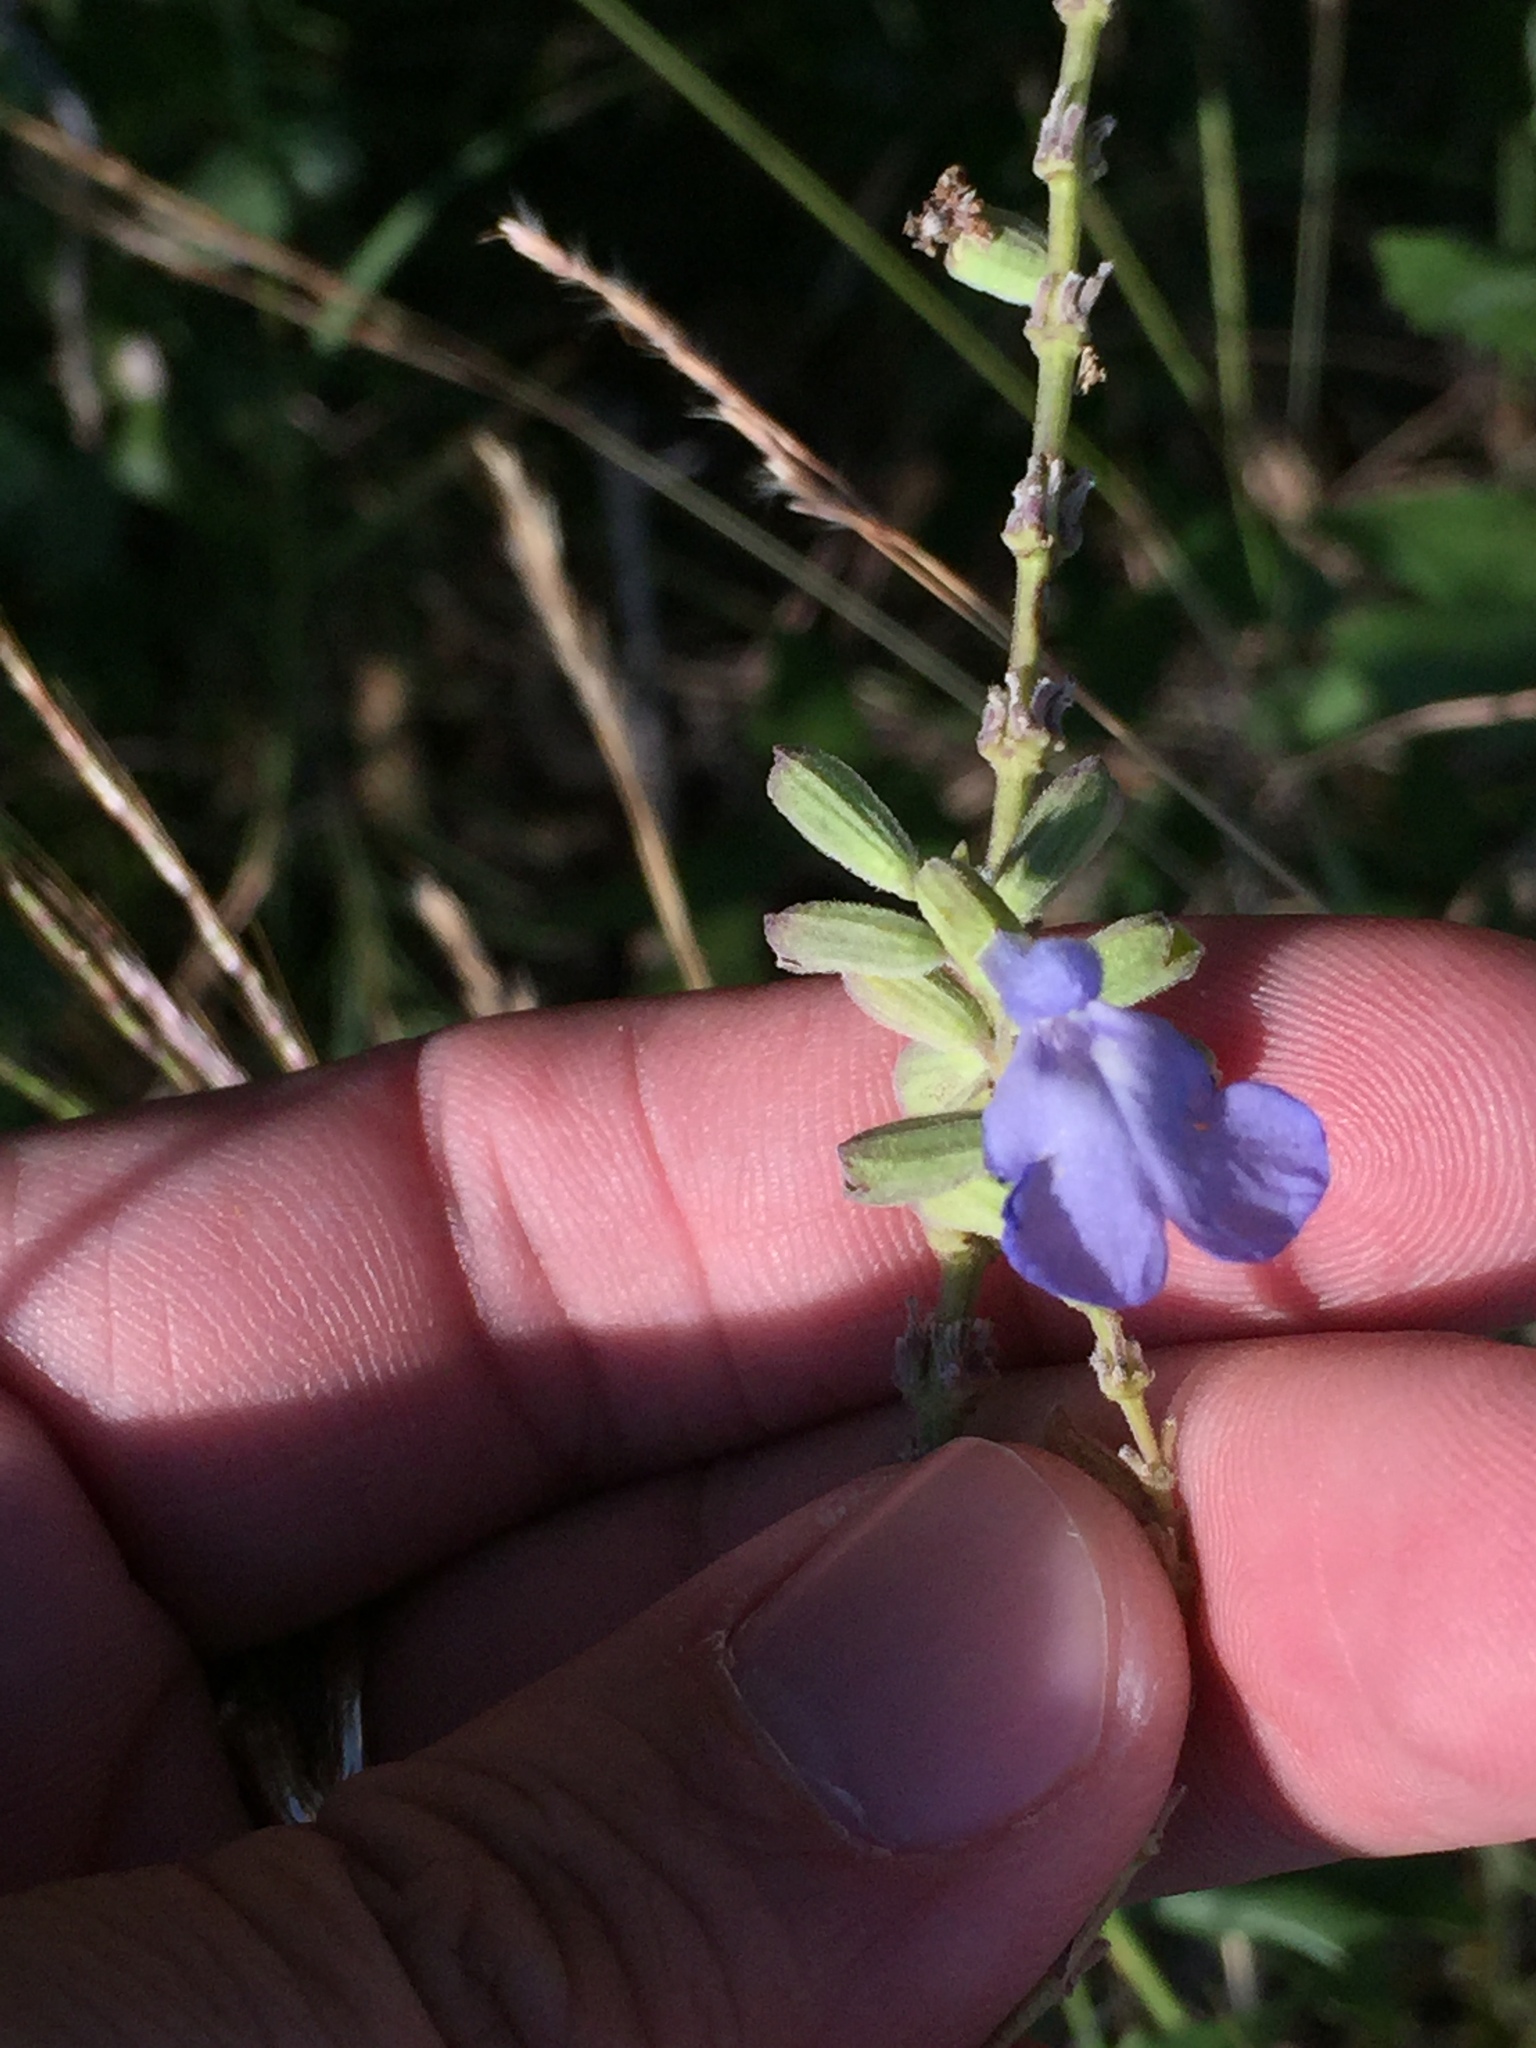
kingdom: Plantae
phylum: Tracheophyta
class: Magnoliopsida
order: Lamiales
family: Lamiaceae
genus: Salvia
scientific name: Salvia azurea
